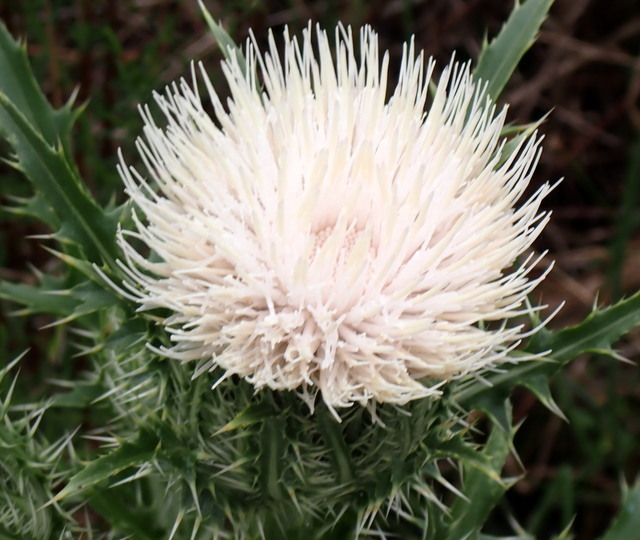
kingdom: Plantae
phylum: Tracheophyta
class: Magnoliopsida
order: Asterales
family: Asteraceae
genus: Cirsium
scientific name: Cirsium horridulum
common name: Bristly thistle
